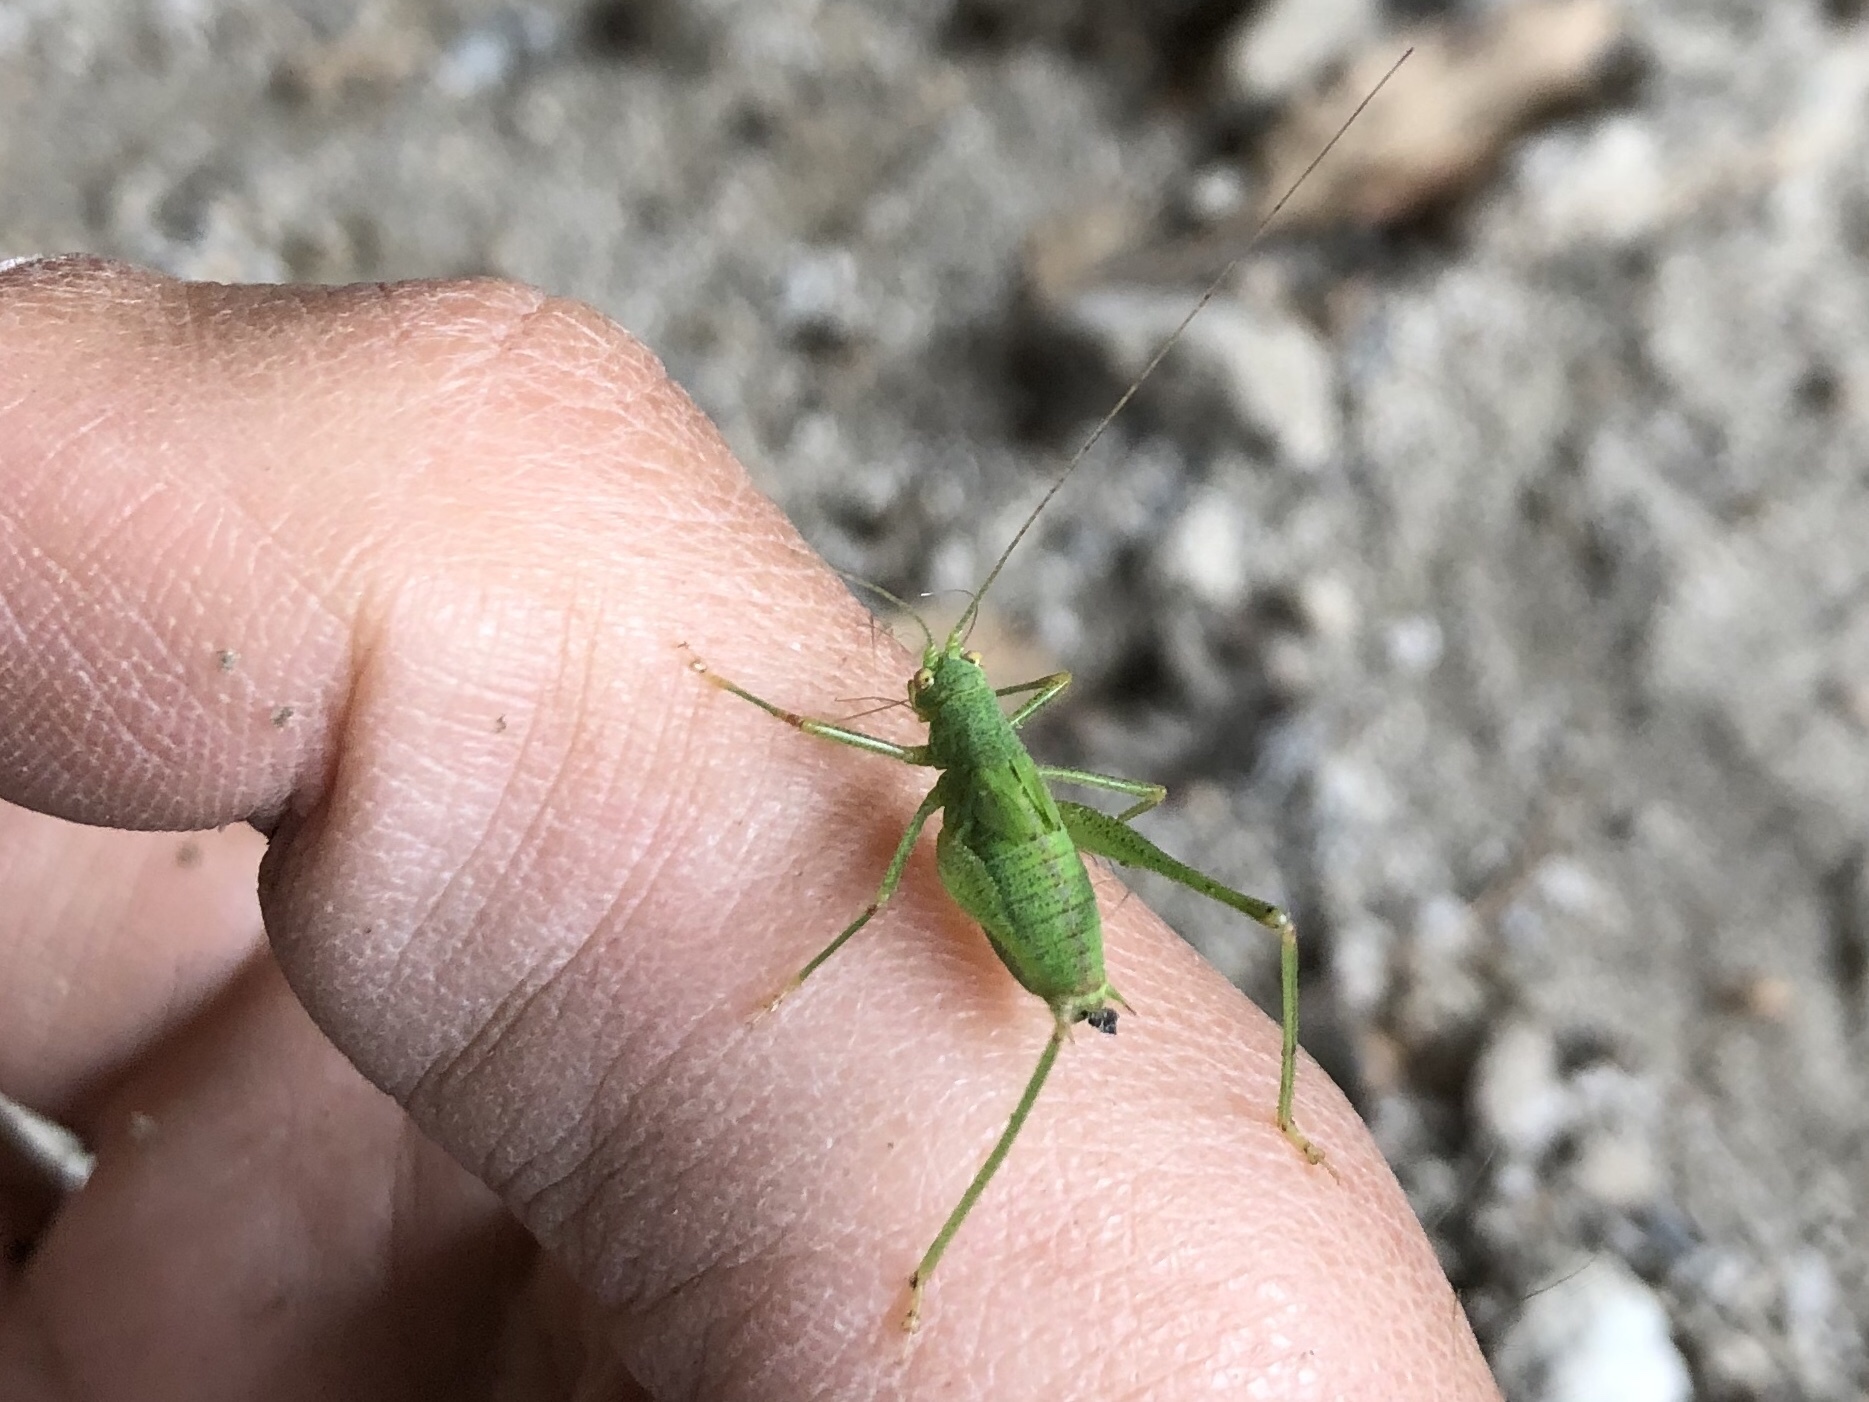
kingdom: Animalia
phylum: Arthropoda
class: Insecta
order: Orthoptera
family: Tettigoniidae
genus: Leptophyes
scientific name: Leptophyes punctatissima
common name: Speckled bush-cricket
